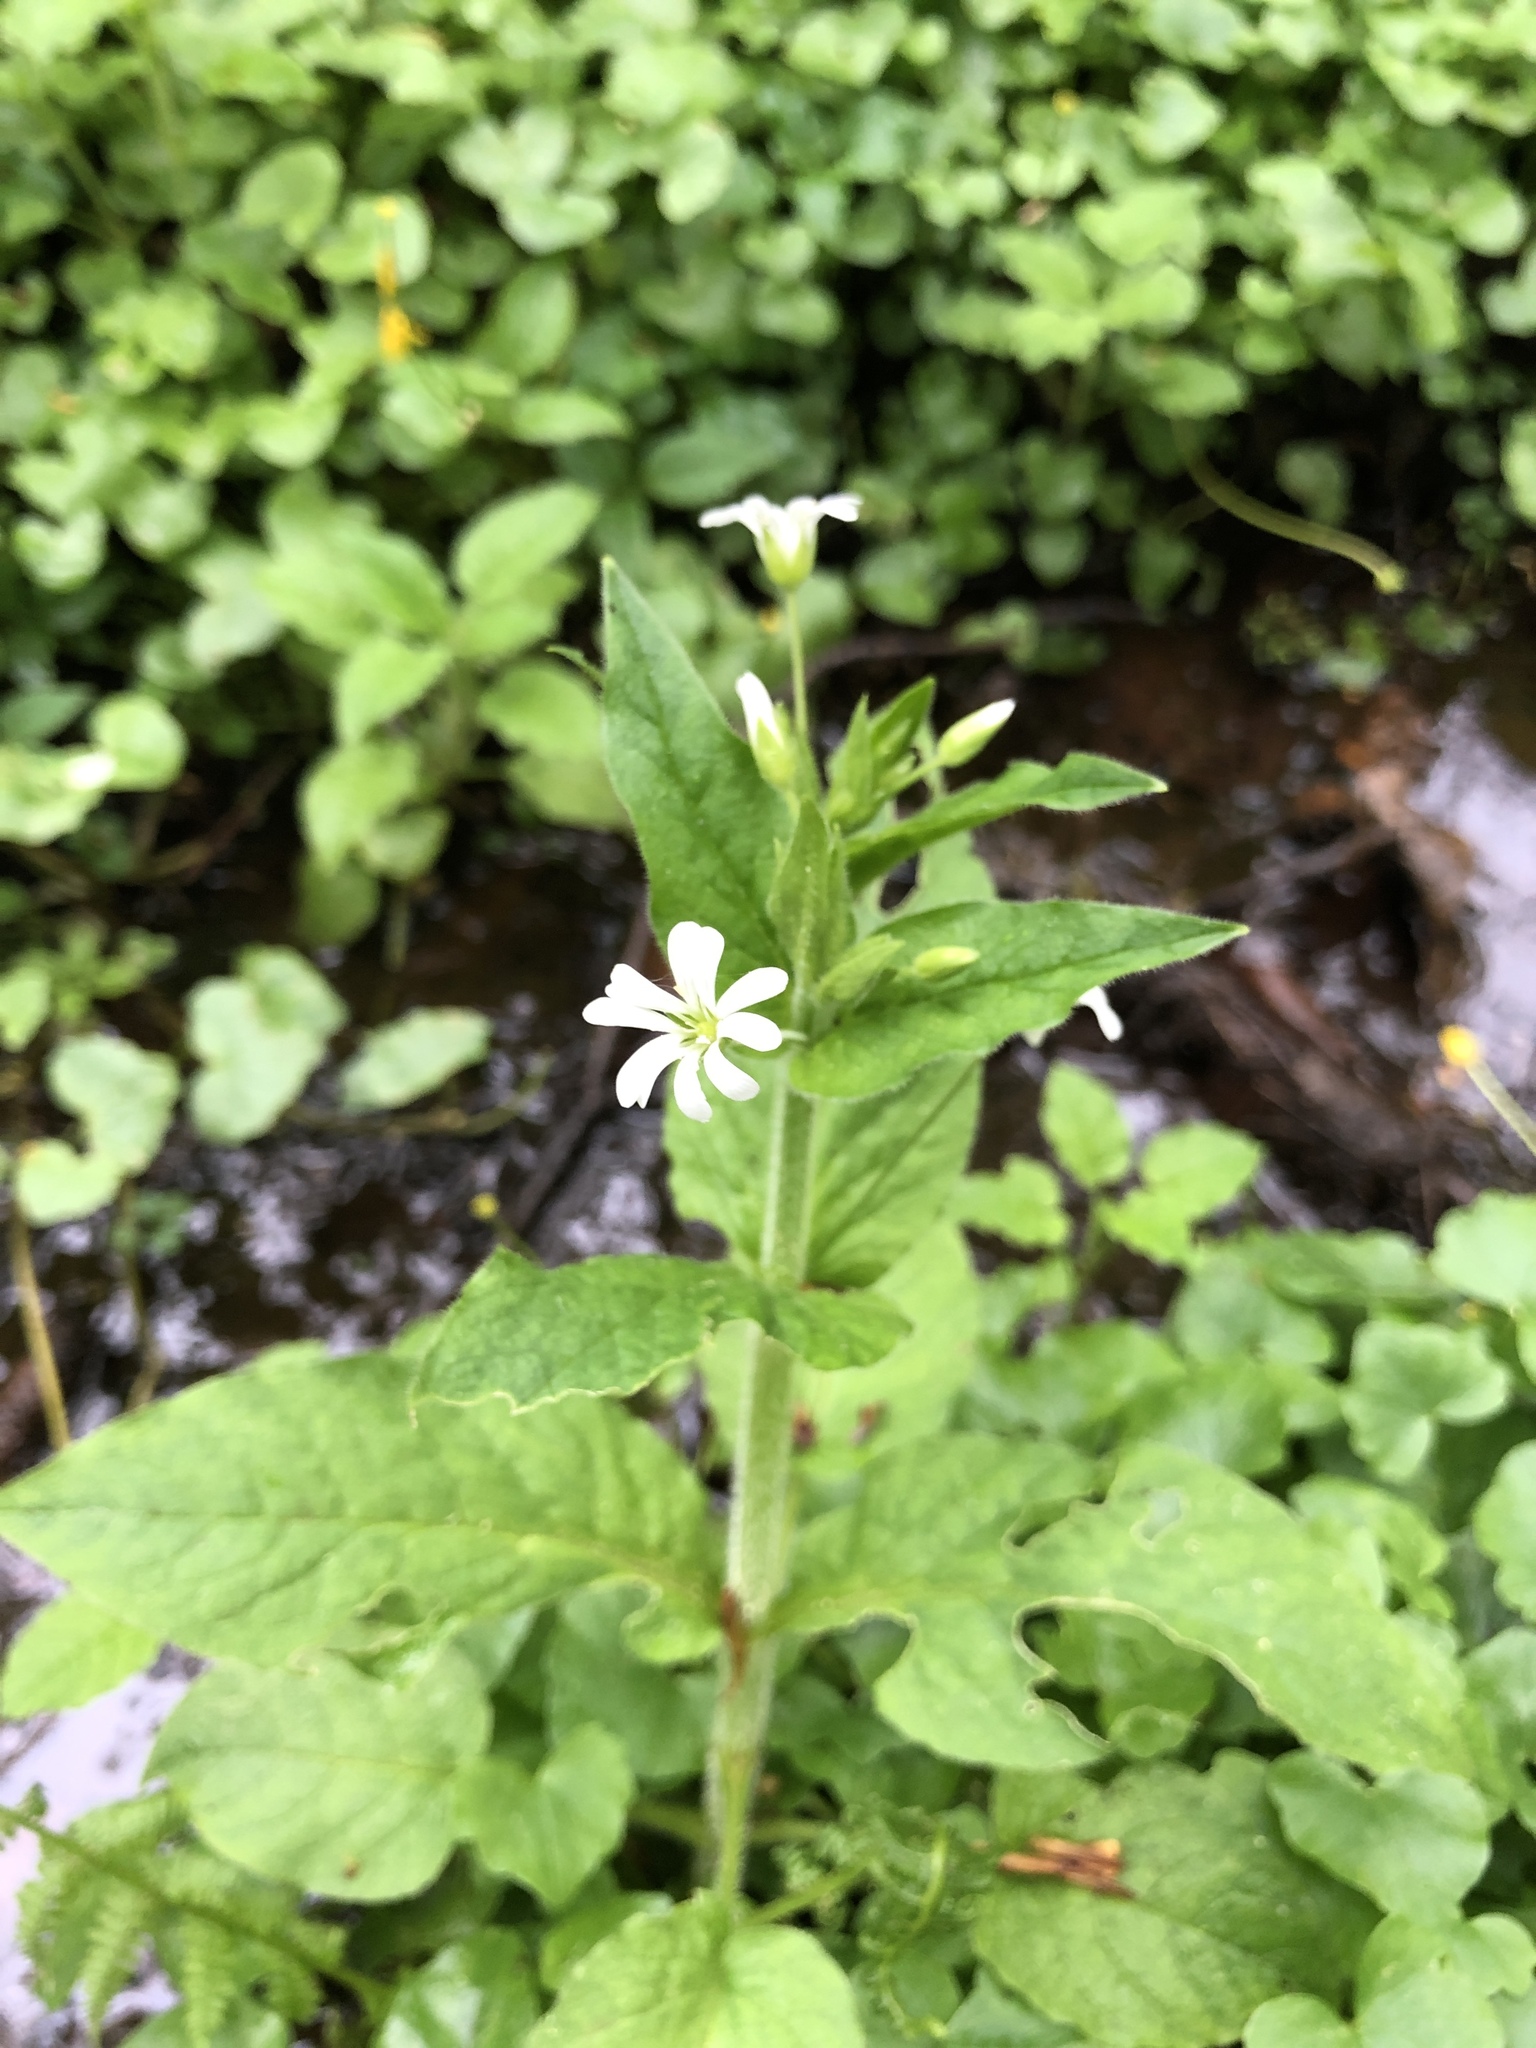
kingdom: Plantae
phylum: Tracheophyta
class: Magnoliopsida
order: Caryophyllales
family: Caryophyllaceae
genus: Stellaria
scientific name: Stellaria aquatica
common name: Water chickweed
